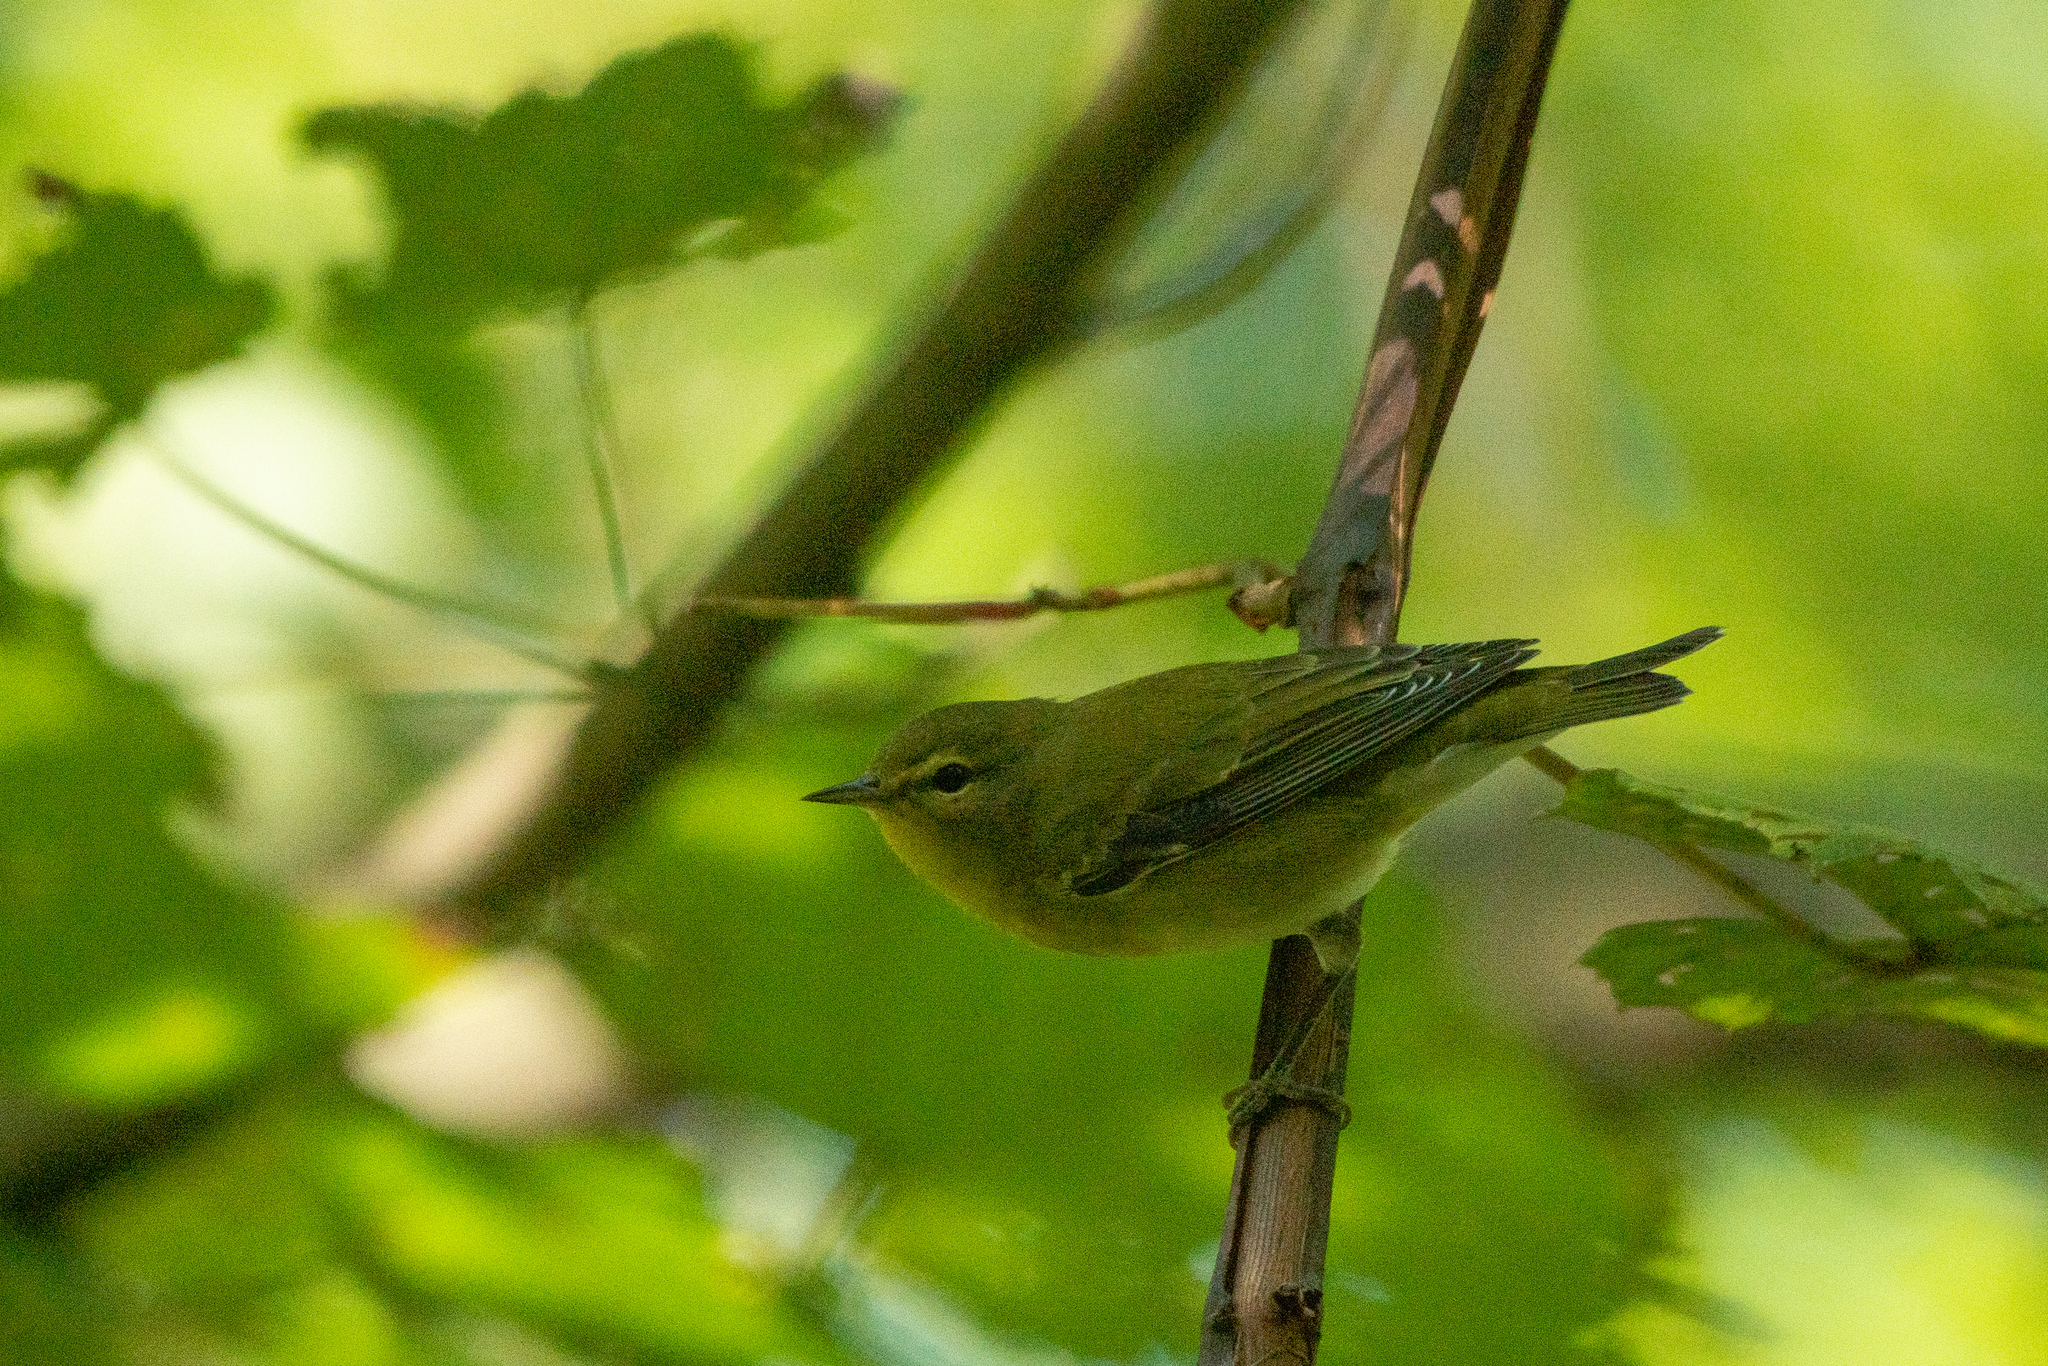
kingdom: Animalia
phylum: Chordata
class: Aves
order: Passeriformes
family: Parulidae
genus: Leiothlypis
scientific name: Leiothlypis peregrina
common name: Tennessee warbler
